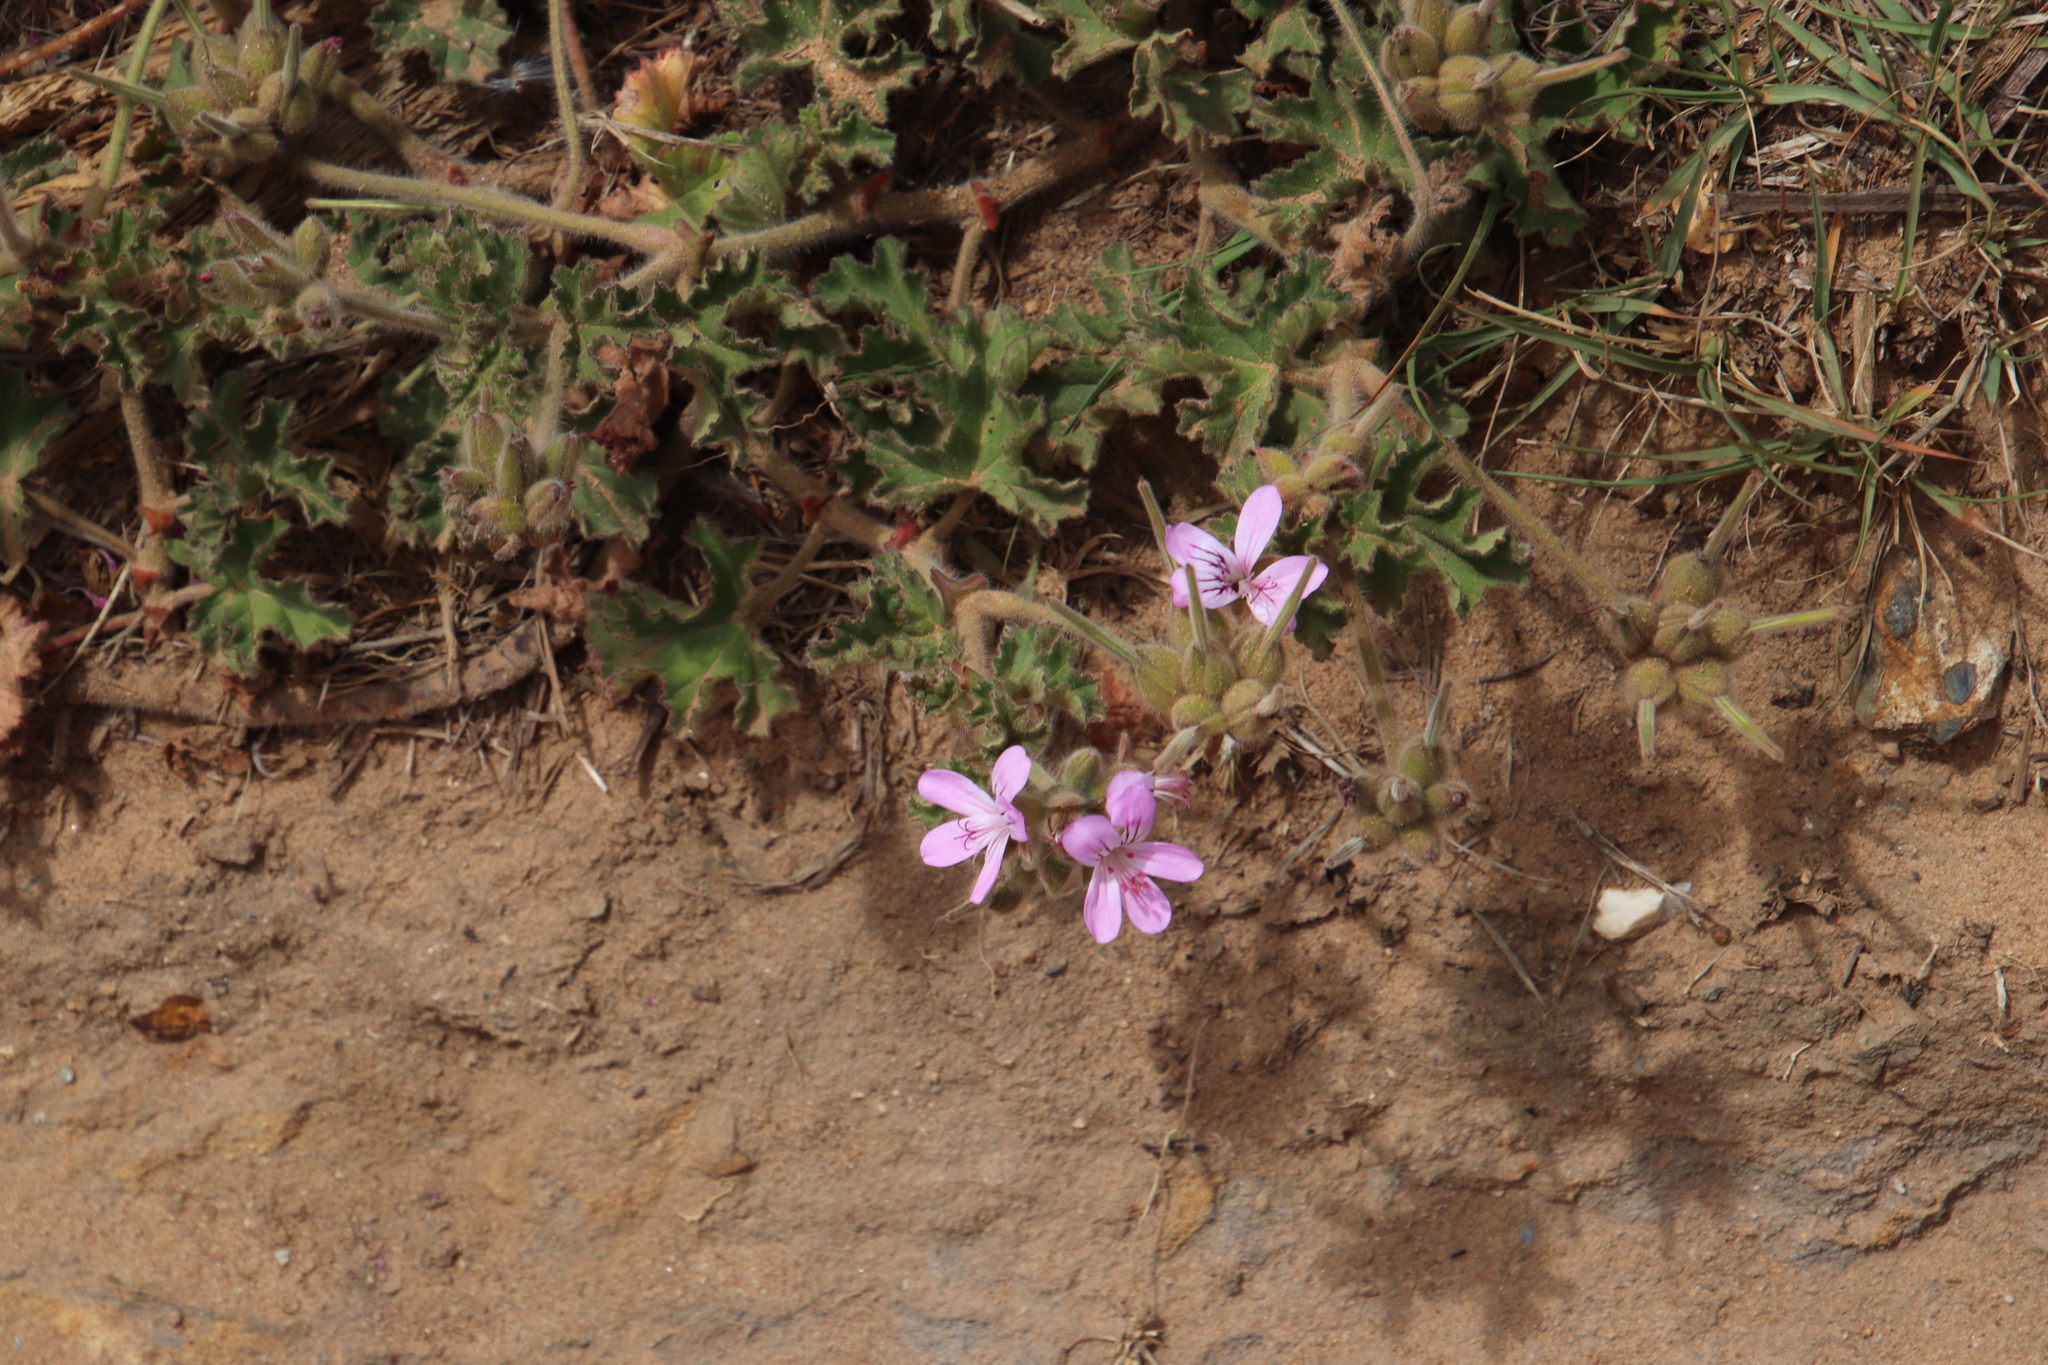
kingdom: Plantae
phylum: Tracheophyta
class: Magnoliopsida
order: Geraniales
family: Geraniaceae
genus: Pelargonium
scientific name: Pelargonium capitatum
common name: Rose scented geranium
